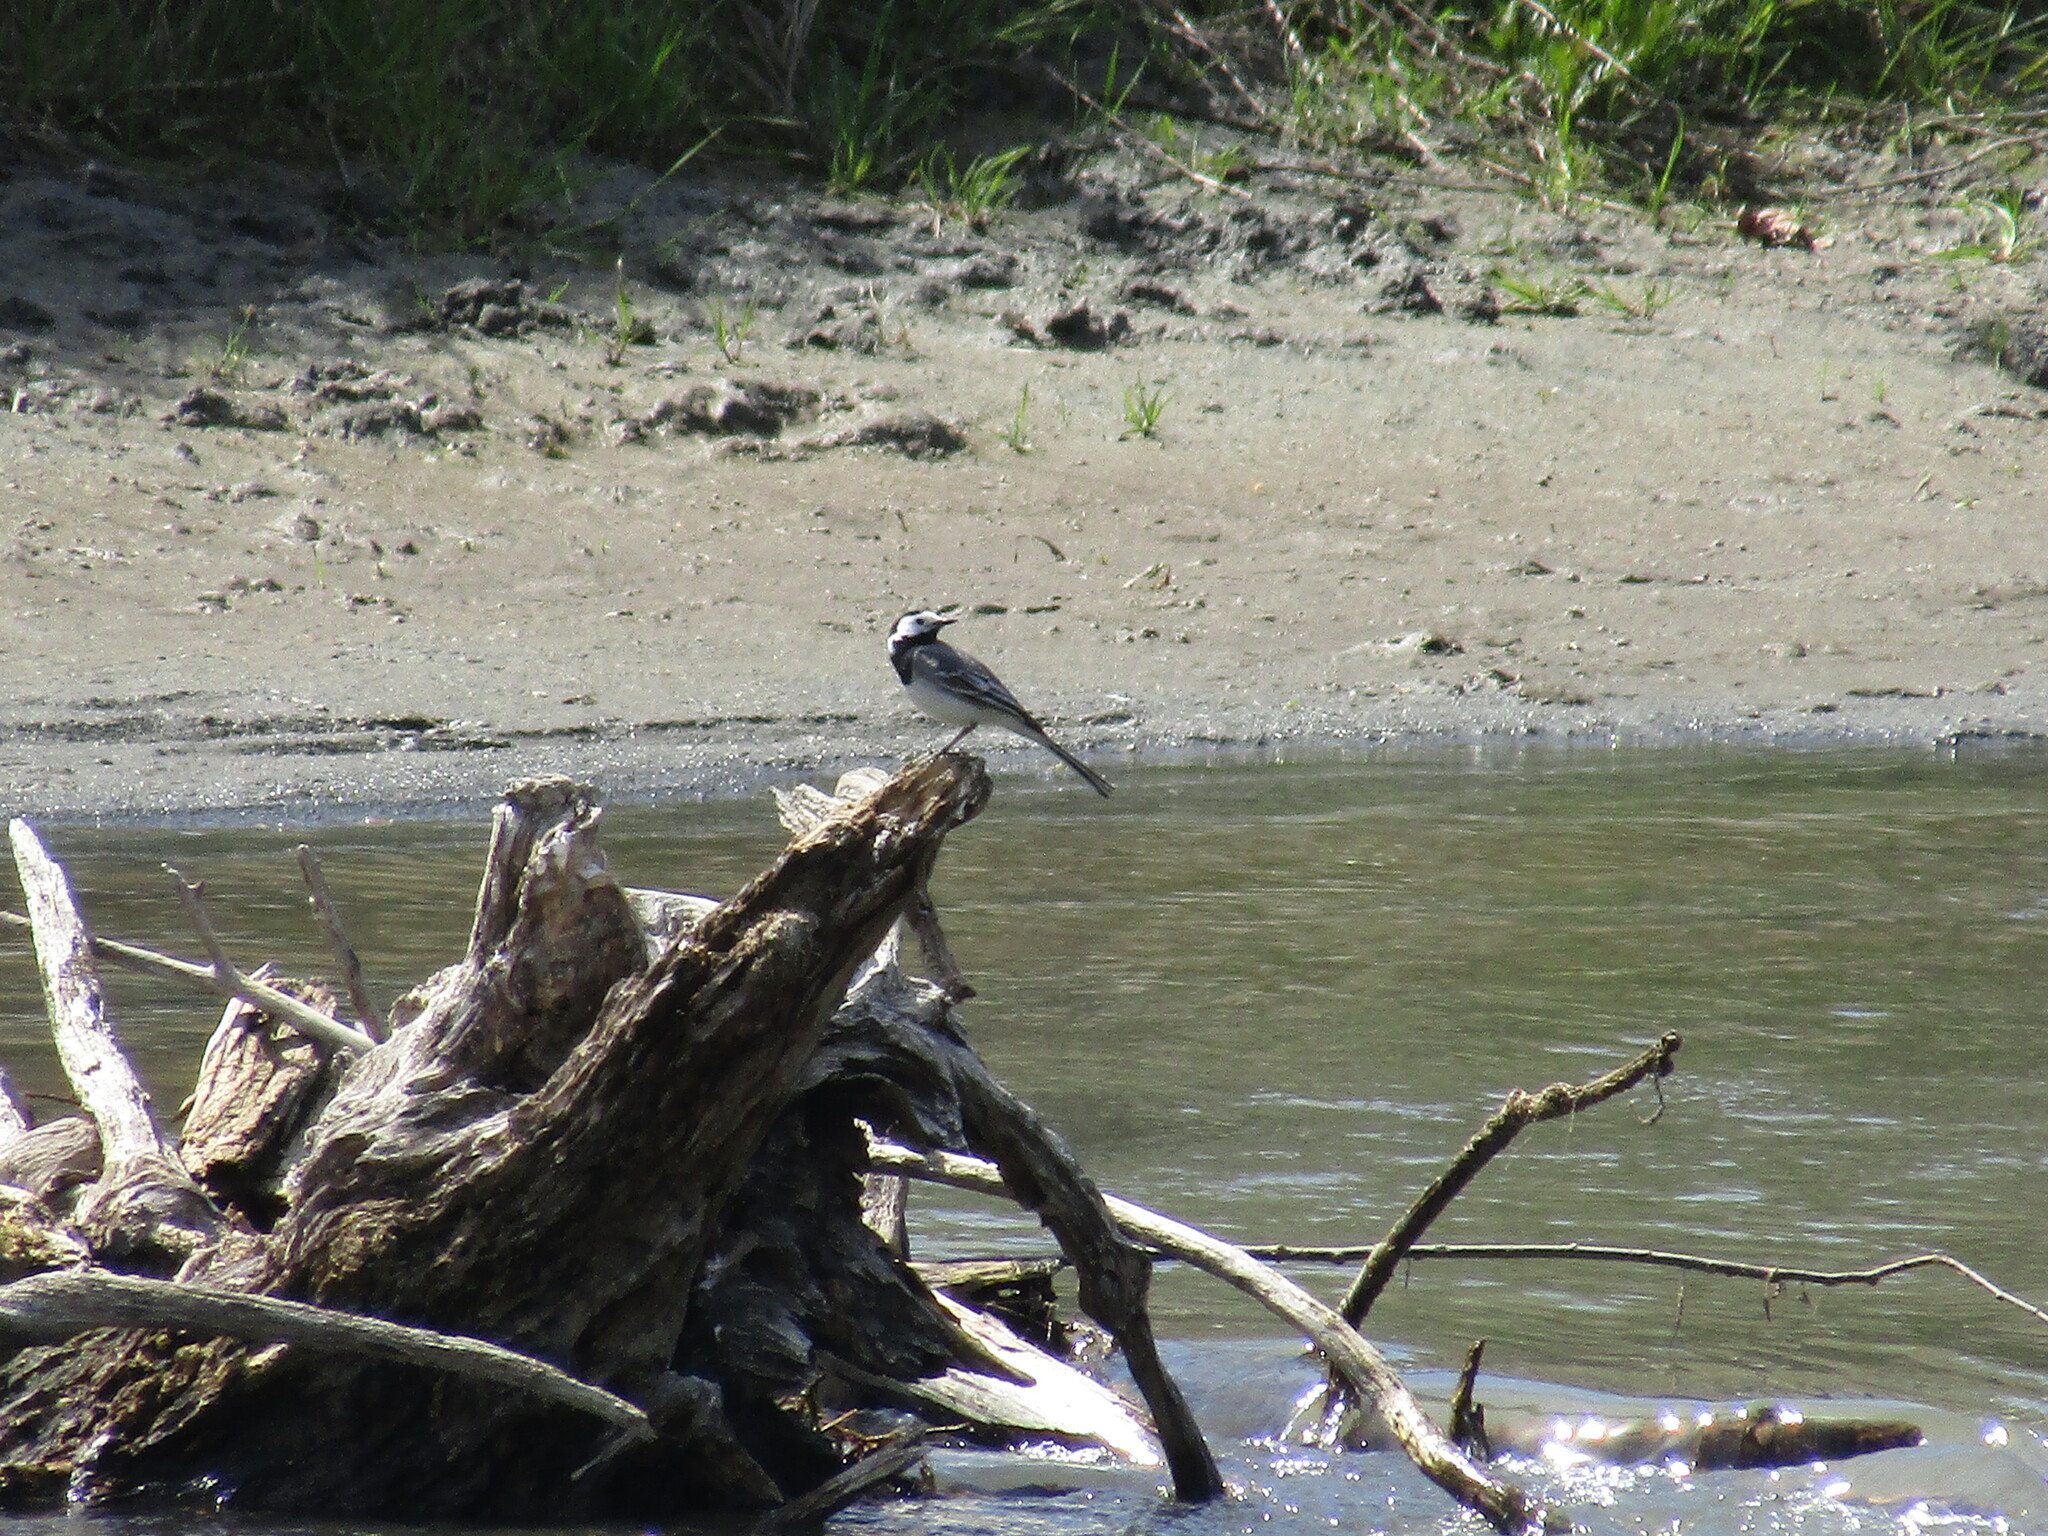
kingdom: Animalia
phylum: Chordata
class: Aves
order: Passeriformes
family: Motacillidae
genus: Motacilla
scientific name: Motacilla alba
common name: White wagtail
